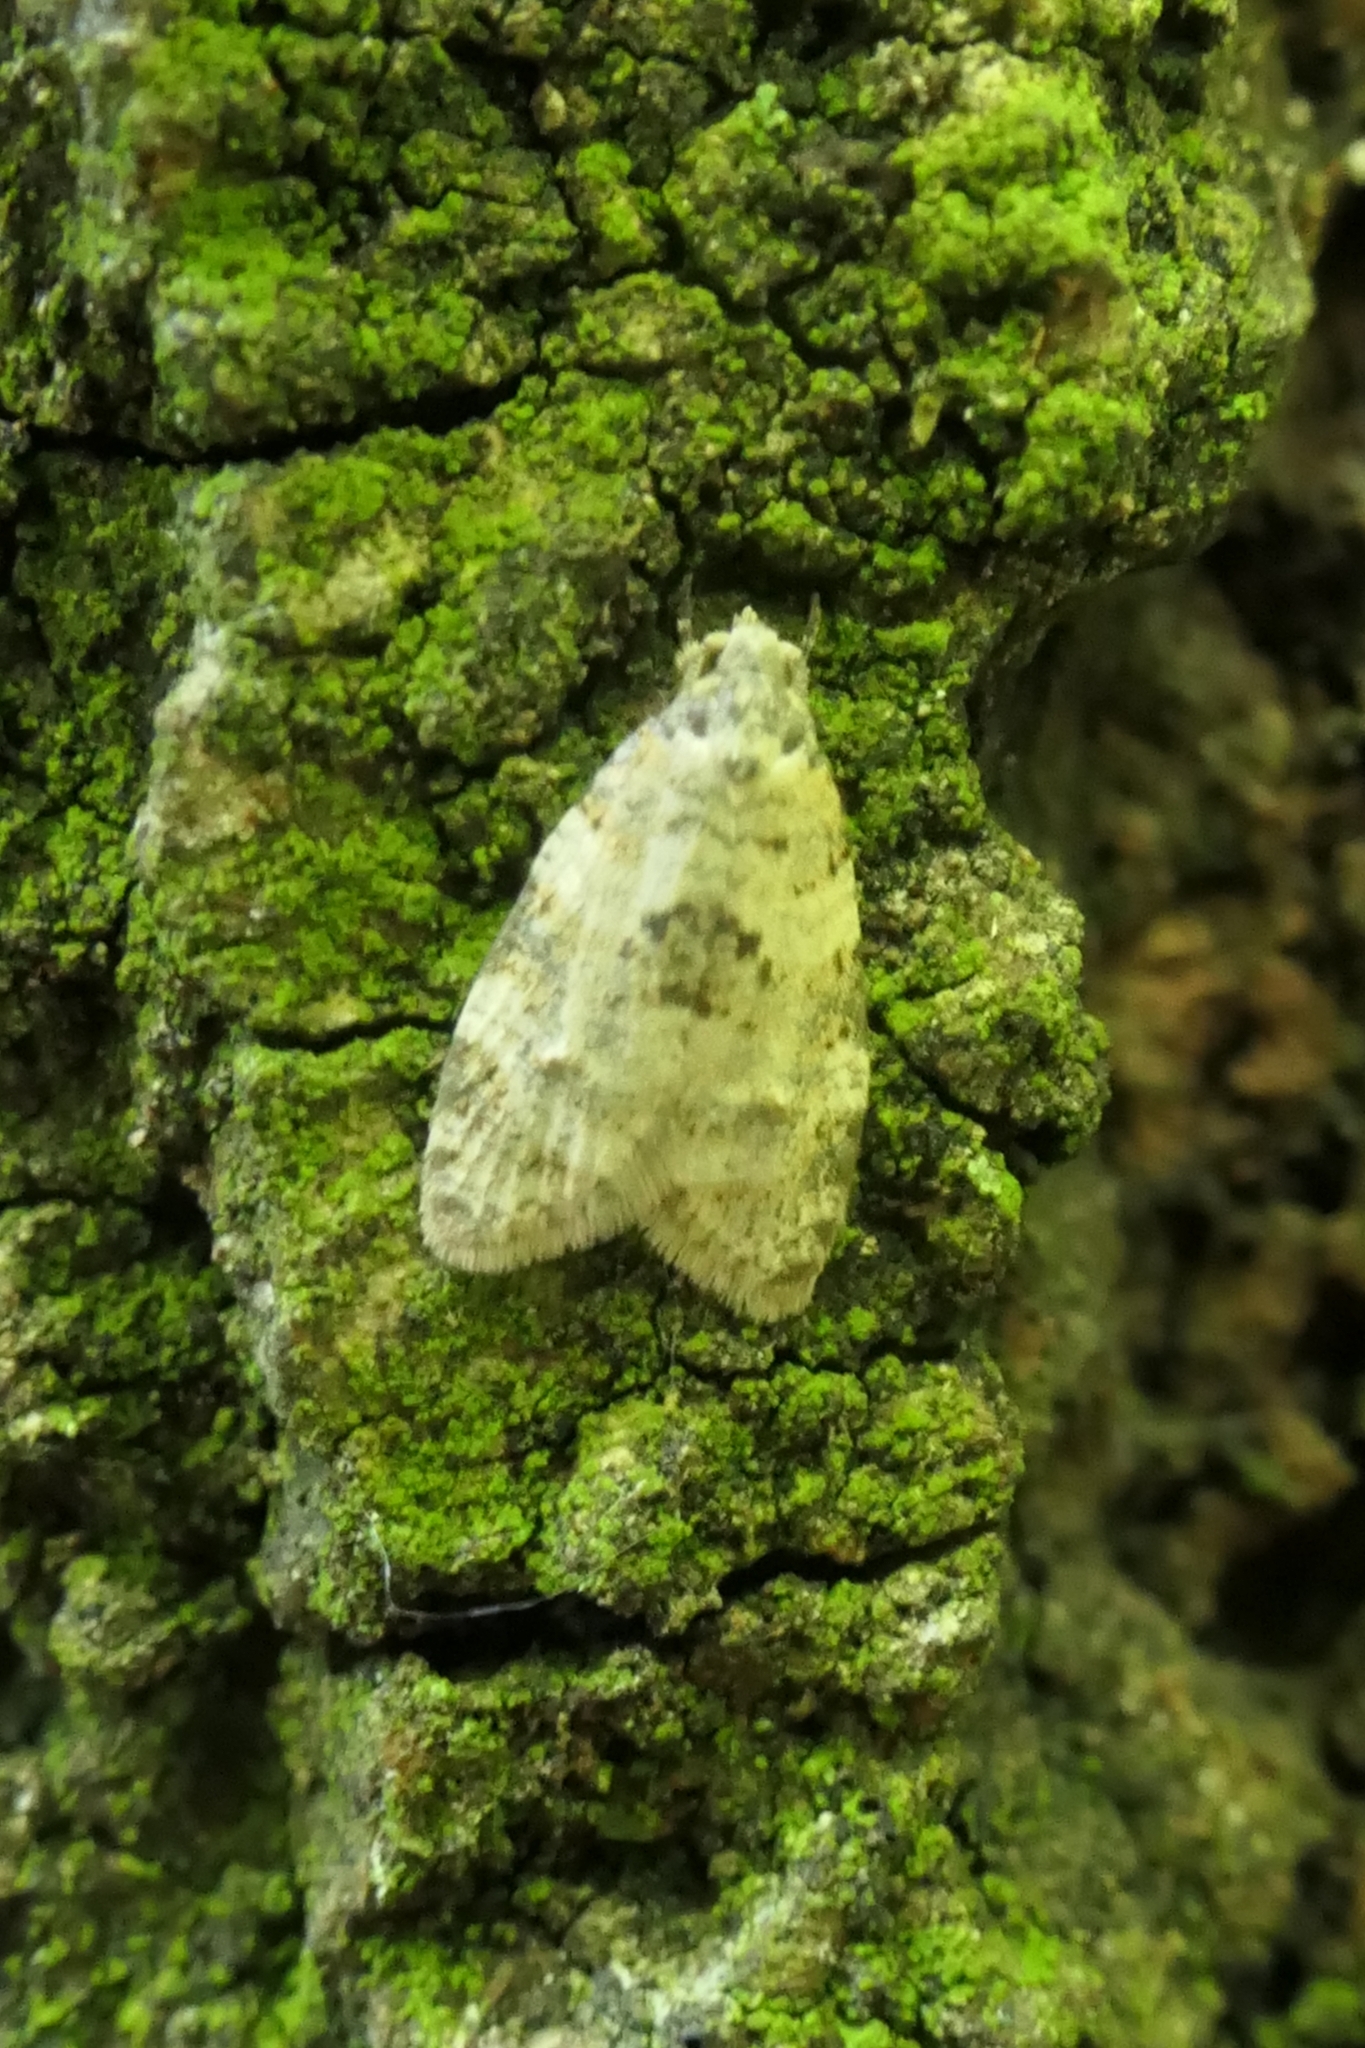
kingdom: Animalia
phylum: Arthropoda
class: Insecta
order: Lepidoptera
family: Tortricidae
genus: Dipterina
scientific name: Dipterina imbriferana
